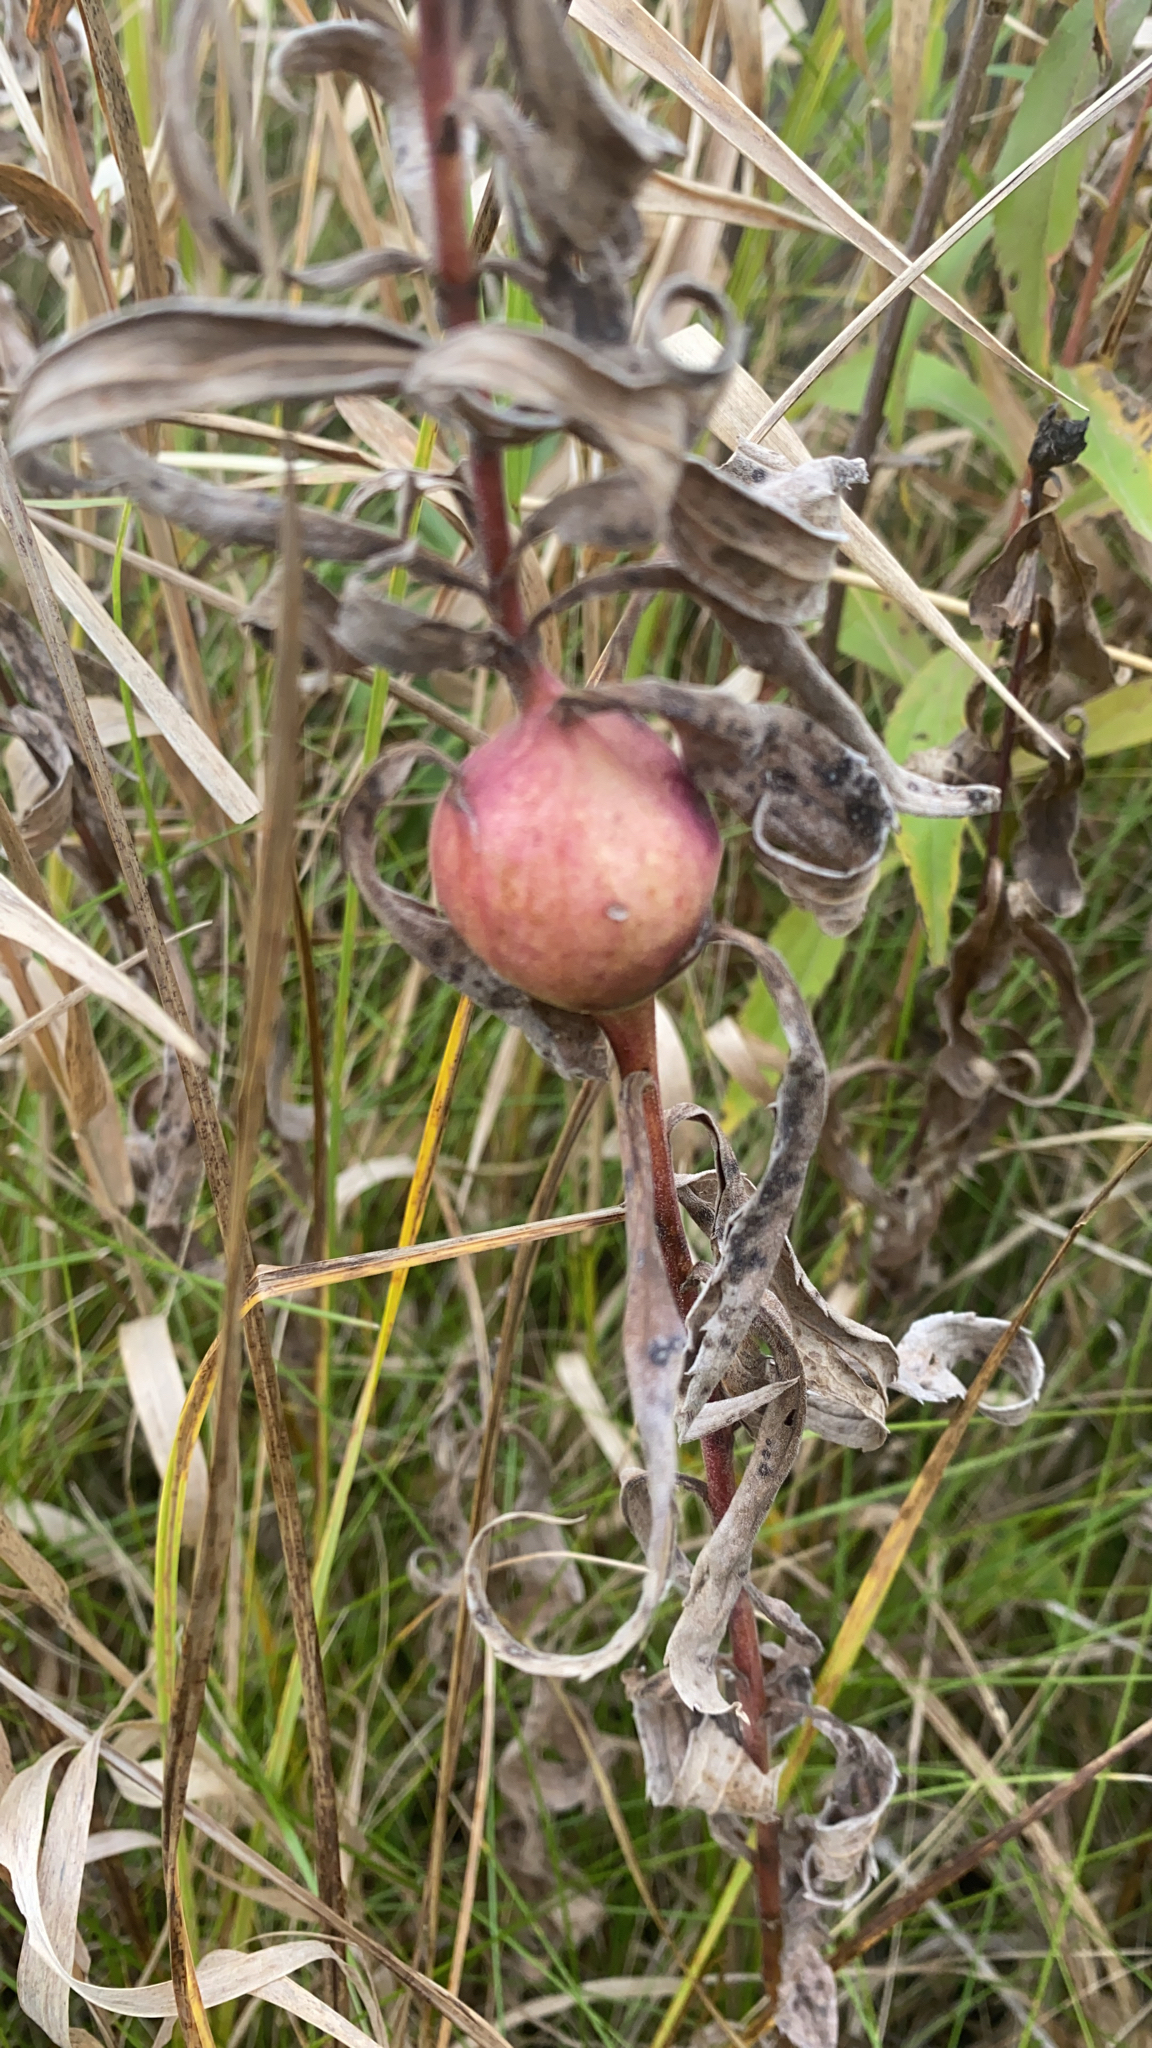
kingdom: Animalia
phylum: Arthropoda
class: Insecta
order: Diptera
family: Tephritidae
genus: Eurosta
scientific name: Eurosta solidaginis
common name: Goldenrod gall fly
